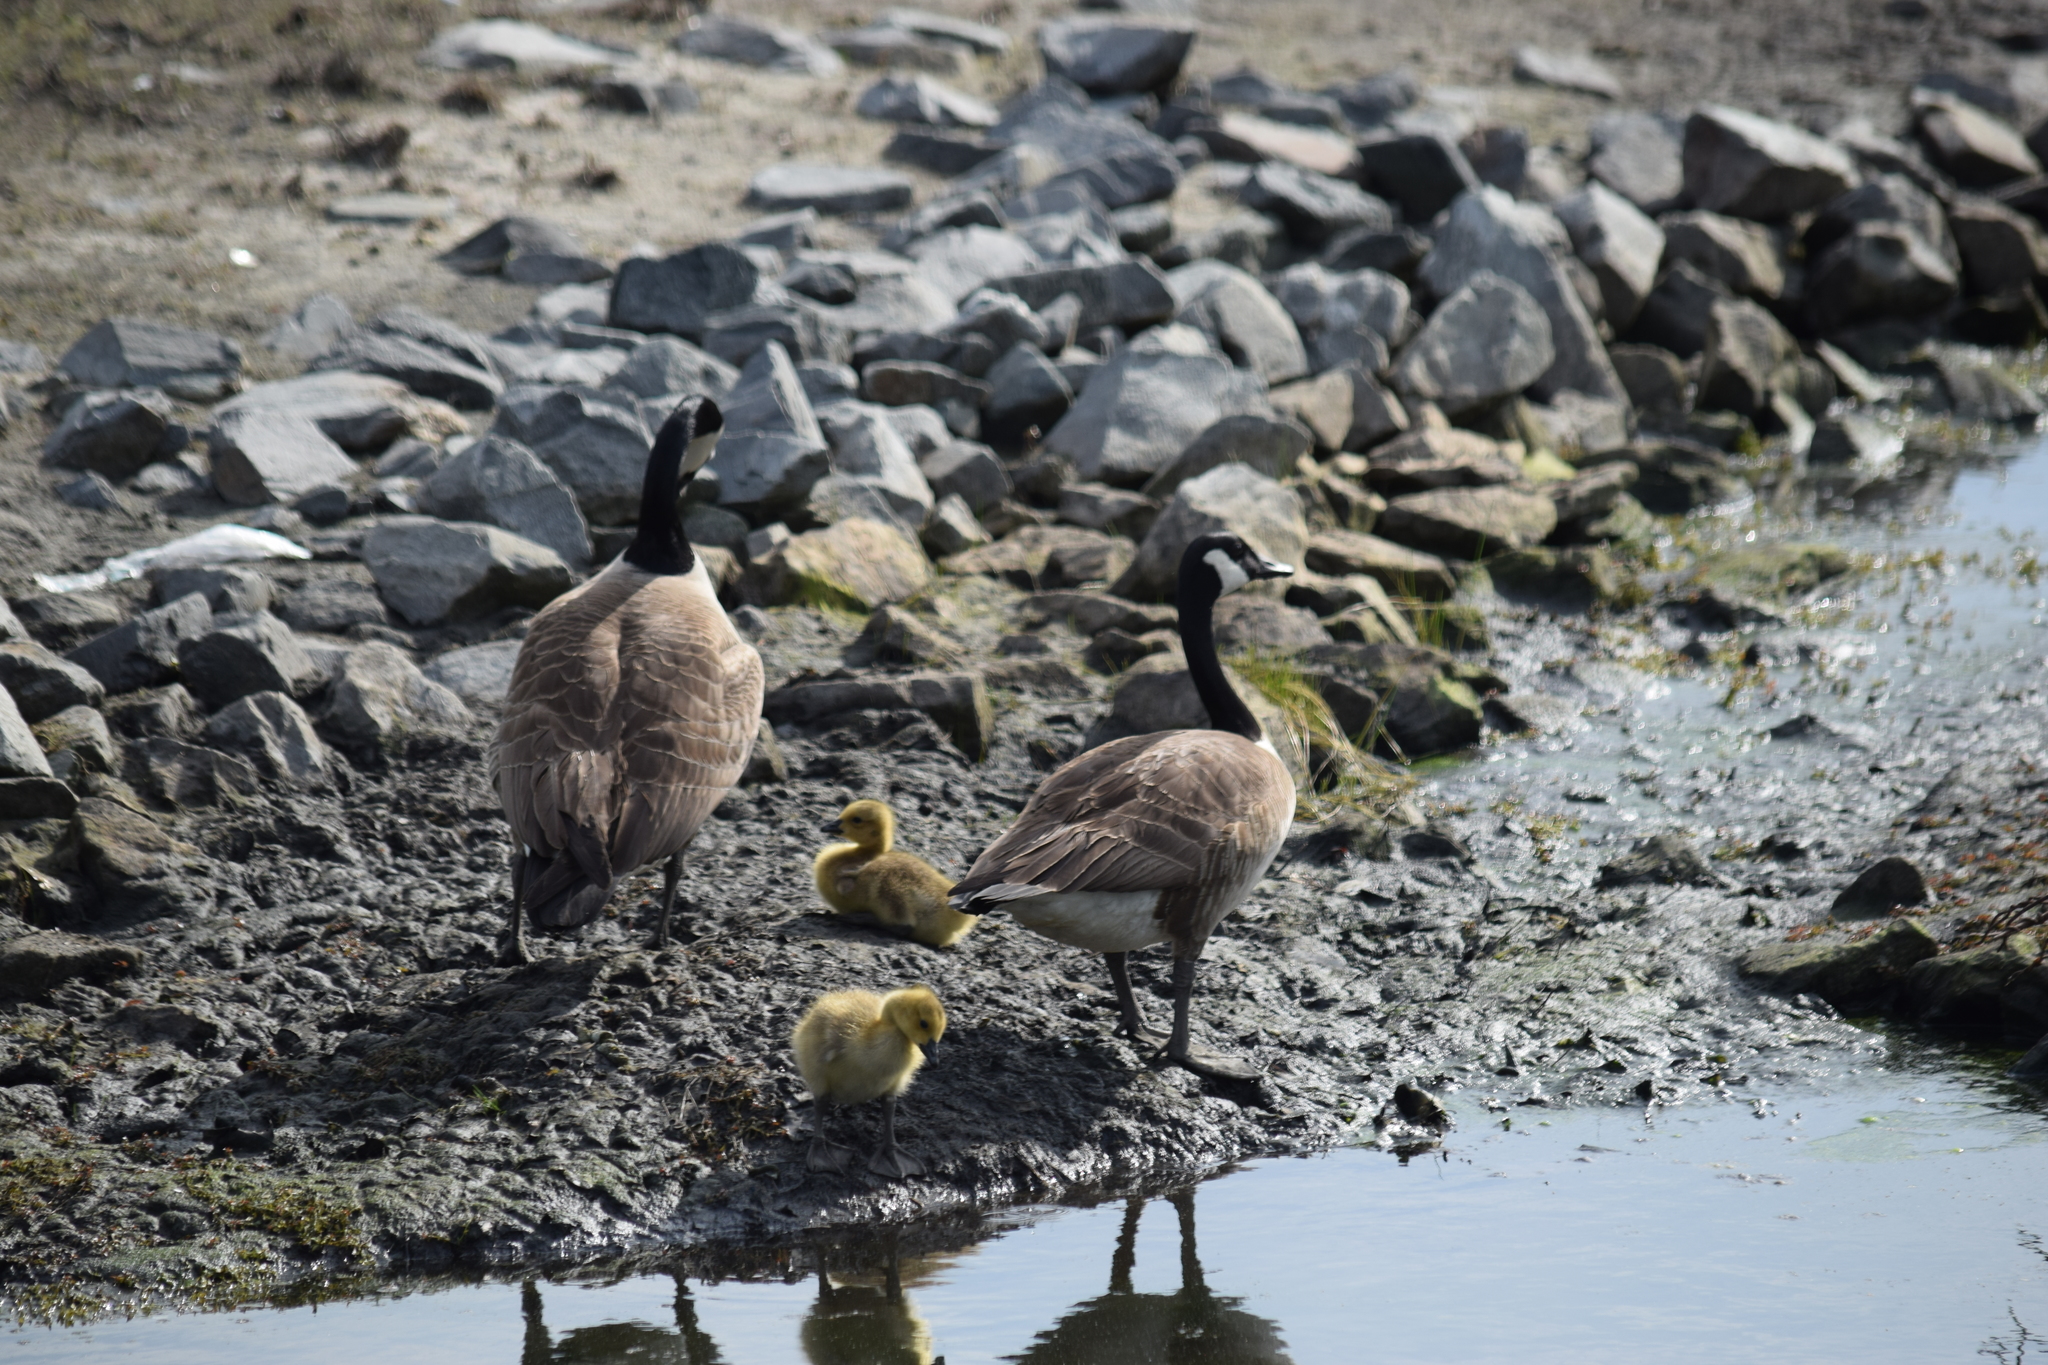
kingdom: Animalia
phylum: Chordata
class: Aves
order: Anseriformes
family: Anatidae
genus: Branta
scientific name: Branta canadensis
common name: Canada goose
